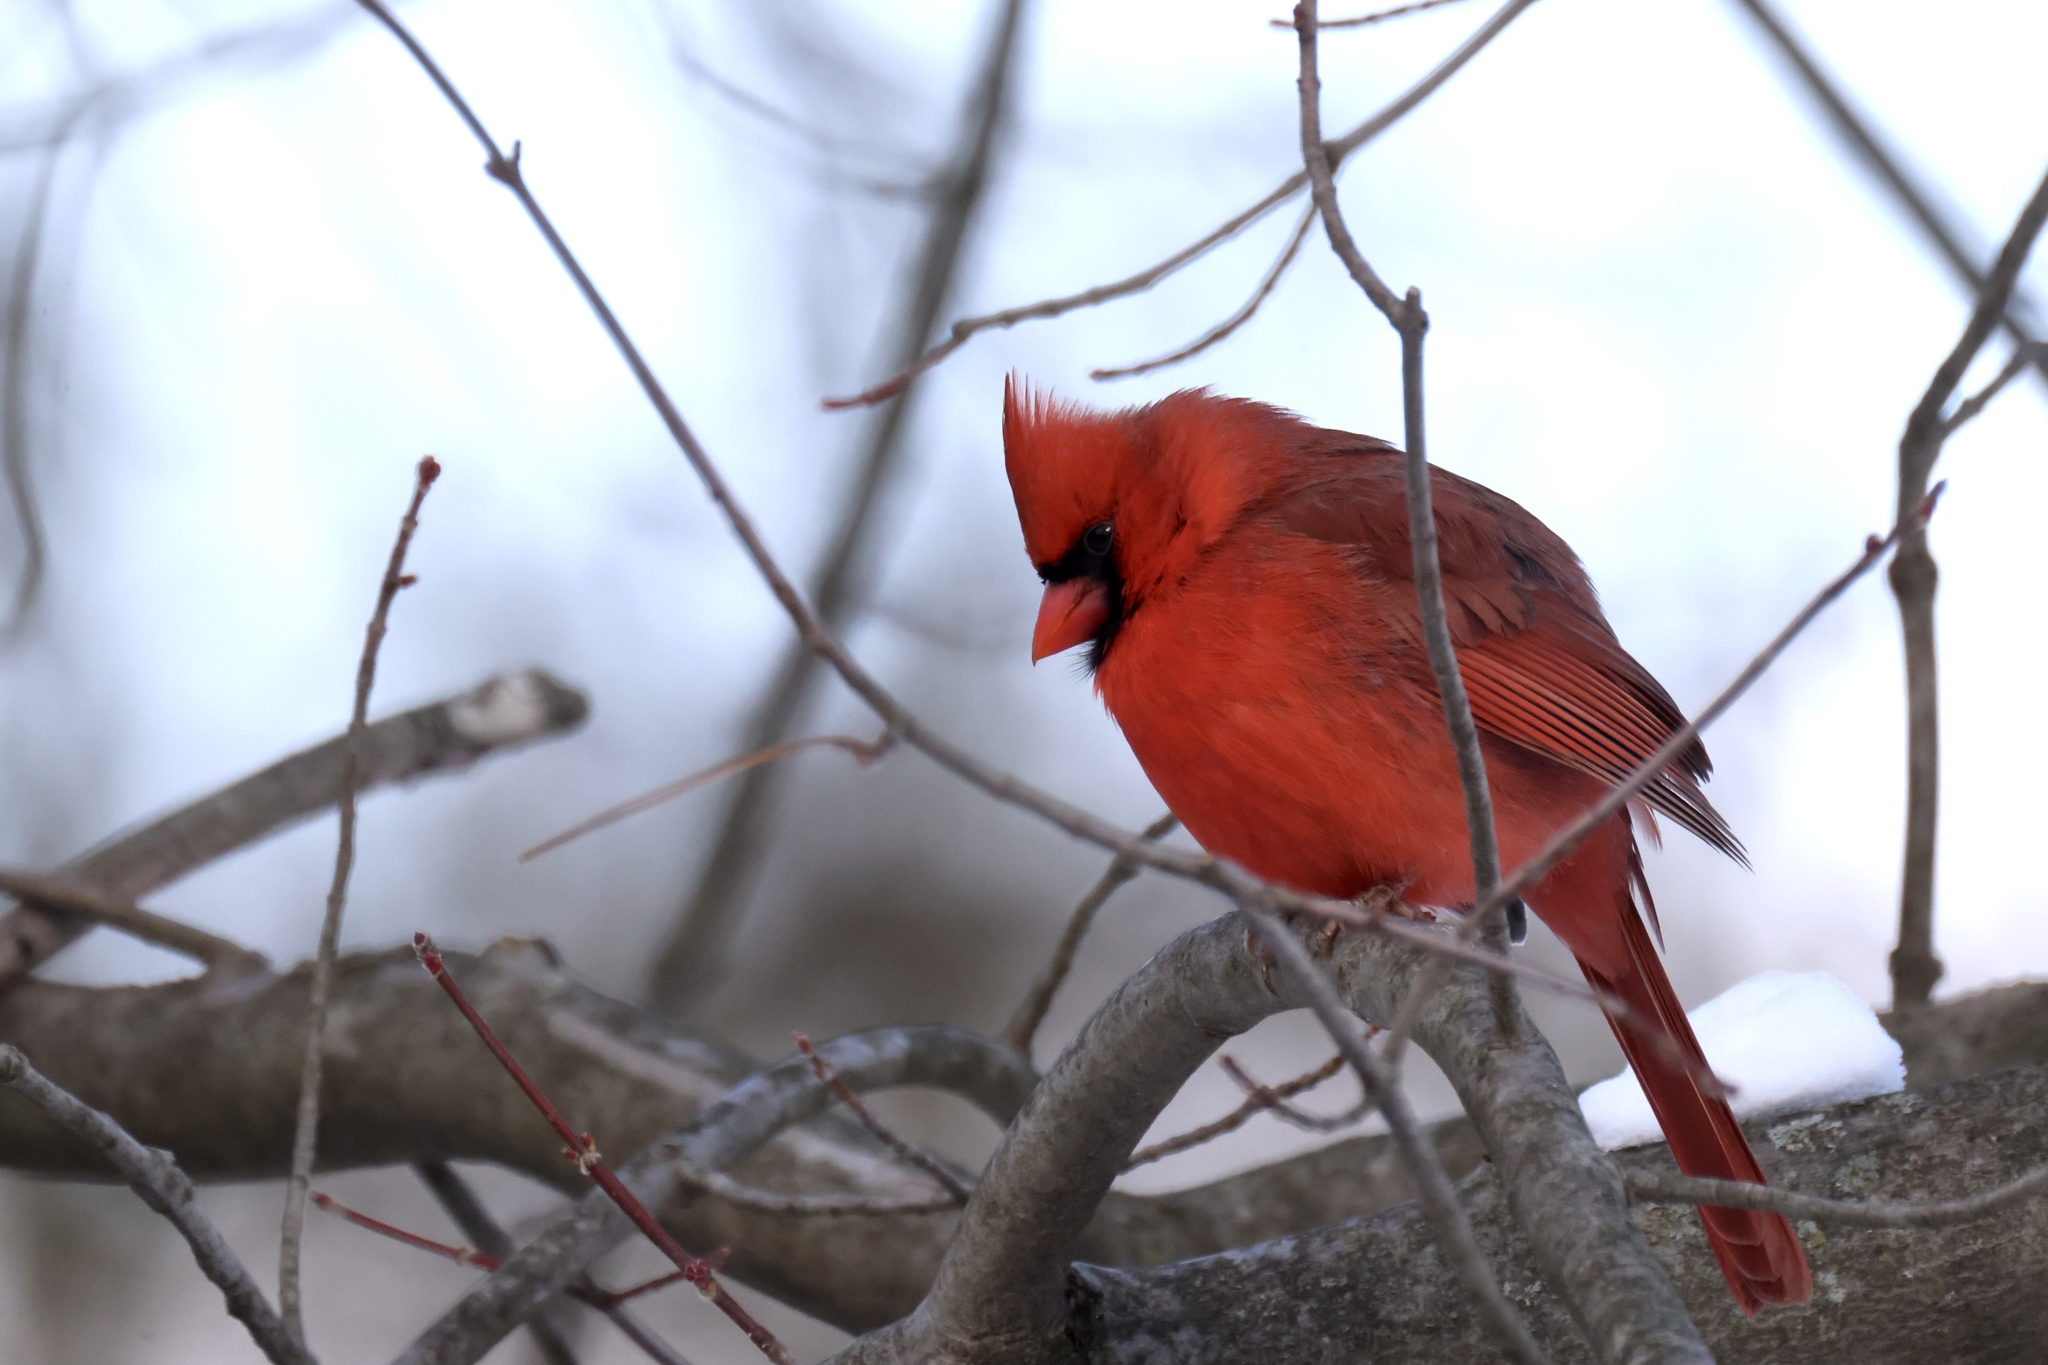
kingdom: Animalia
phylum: Chordata
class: Aves
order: Passeriformes
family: Cardinalidae
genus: Cardinalis
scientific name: Cardinalis cardinalis
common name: Northern cardinal
